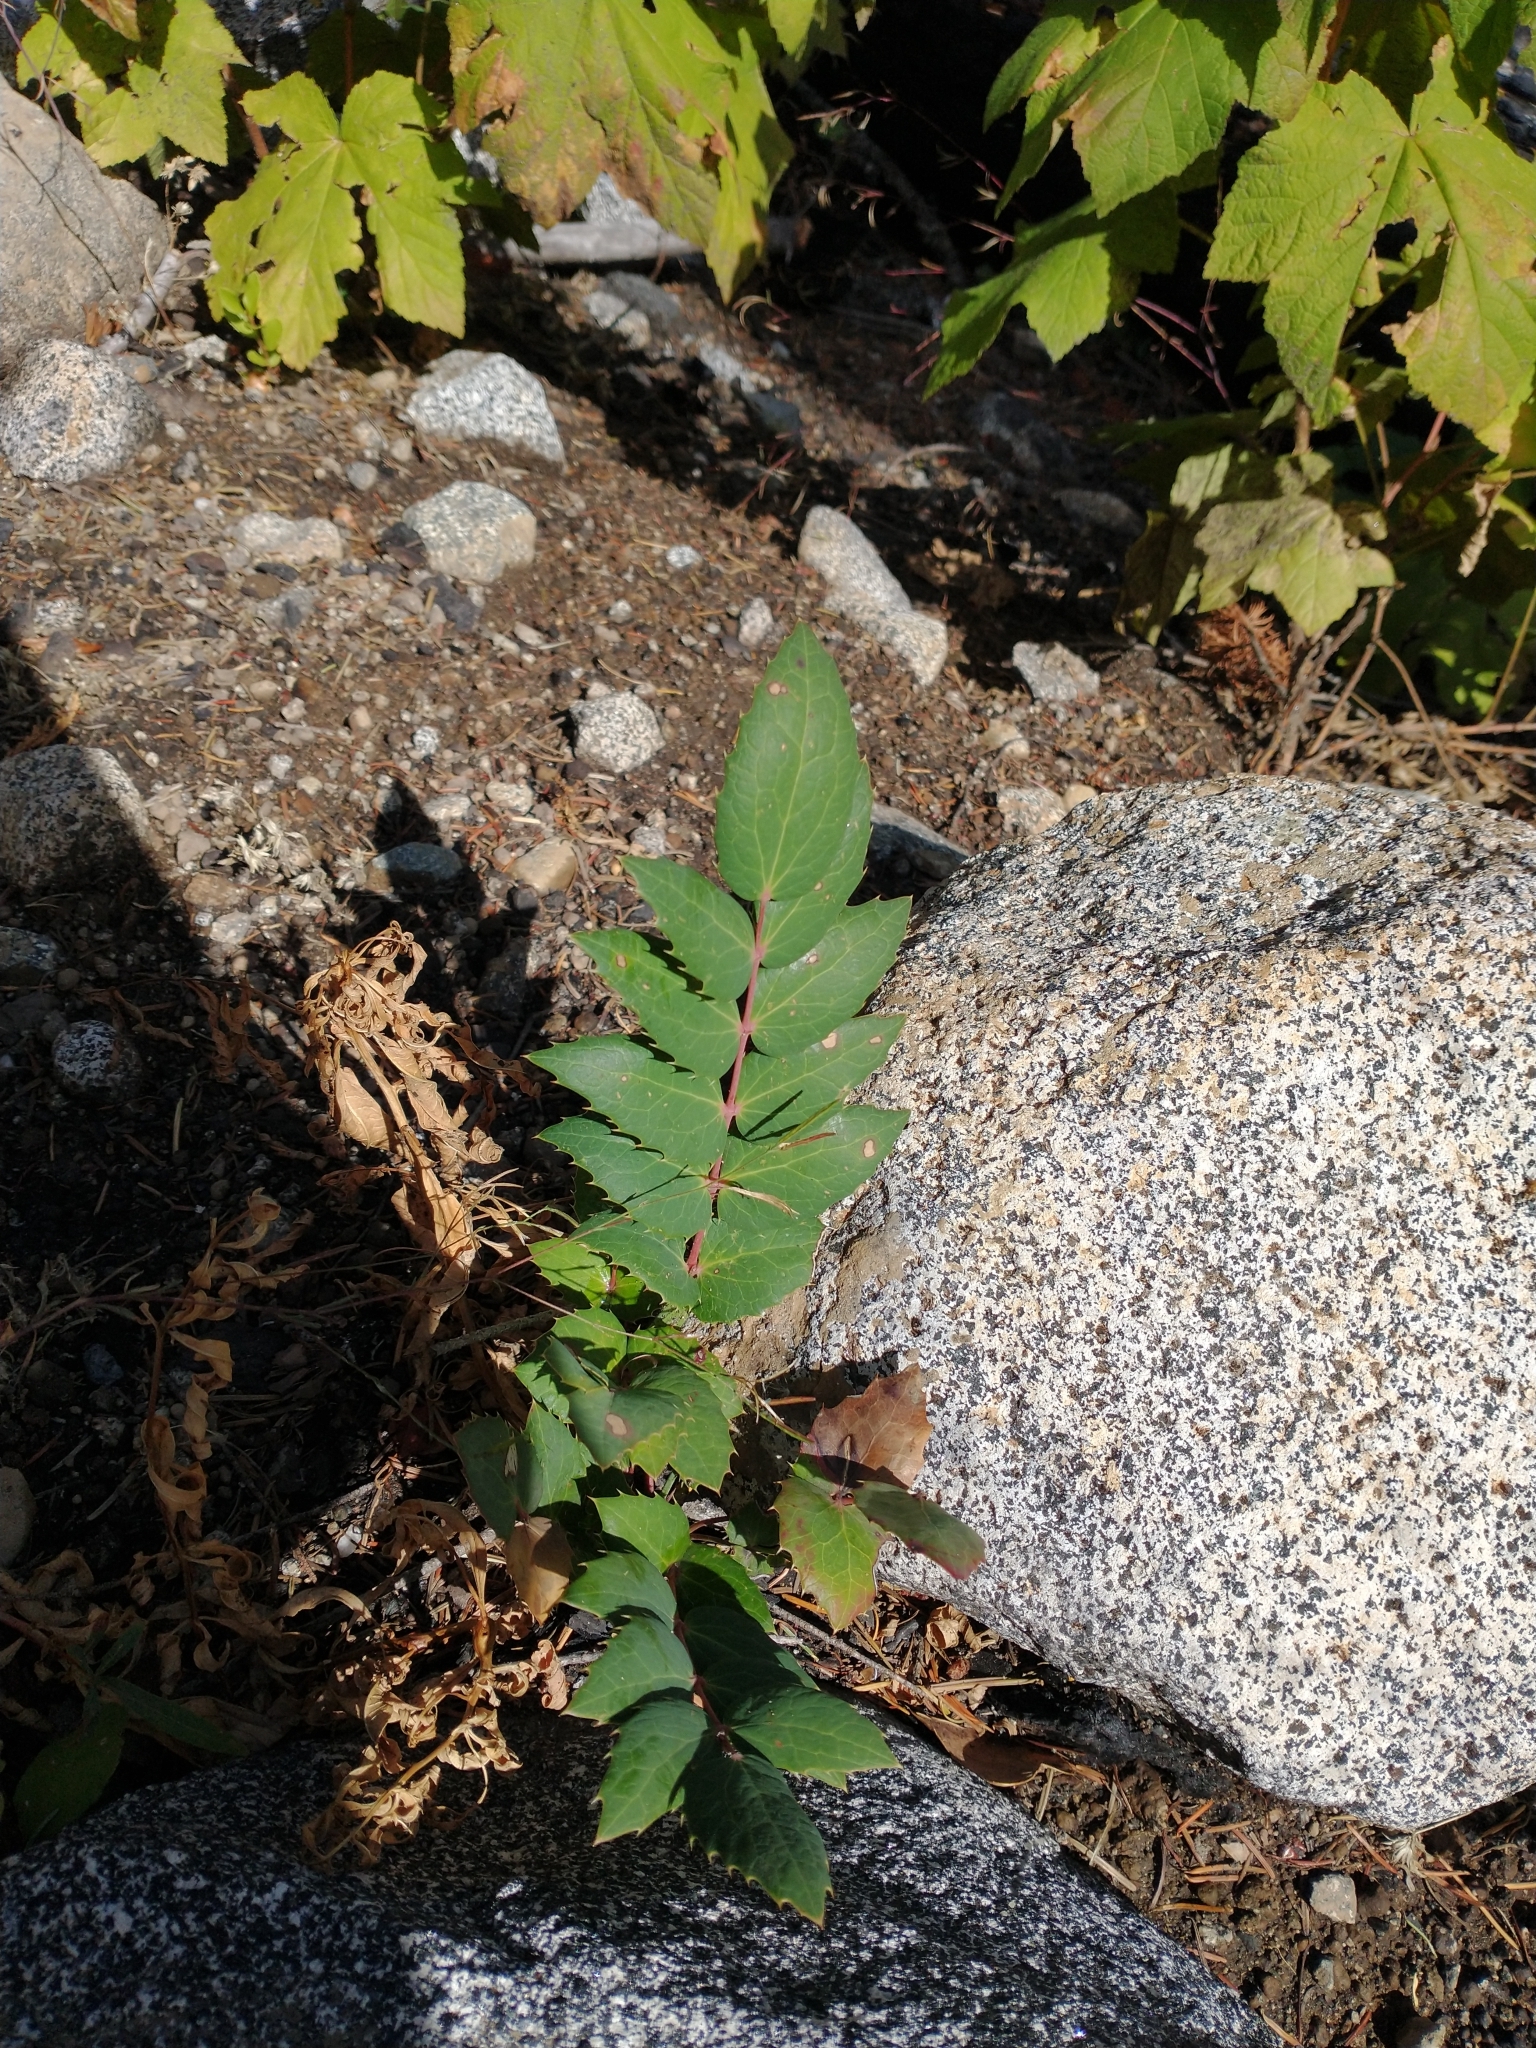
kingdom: Plantae
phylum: Tracheophyta
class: Magnoliopsida
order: Ranunculales
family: Berberidaceae
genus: Mahonia
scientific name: Mahonia nervosa
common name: Cascade oregon-grape
